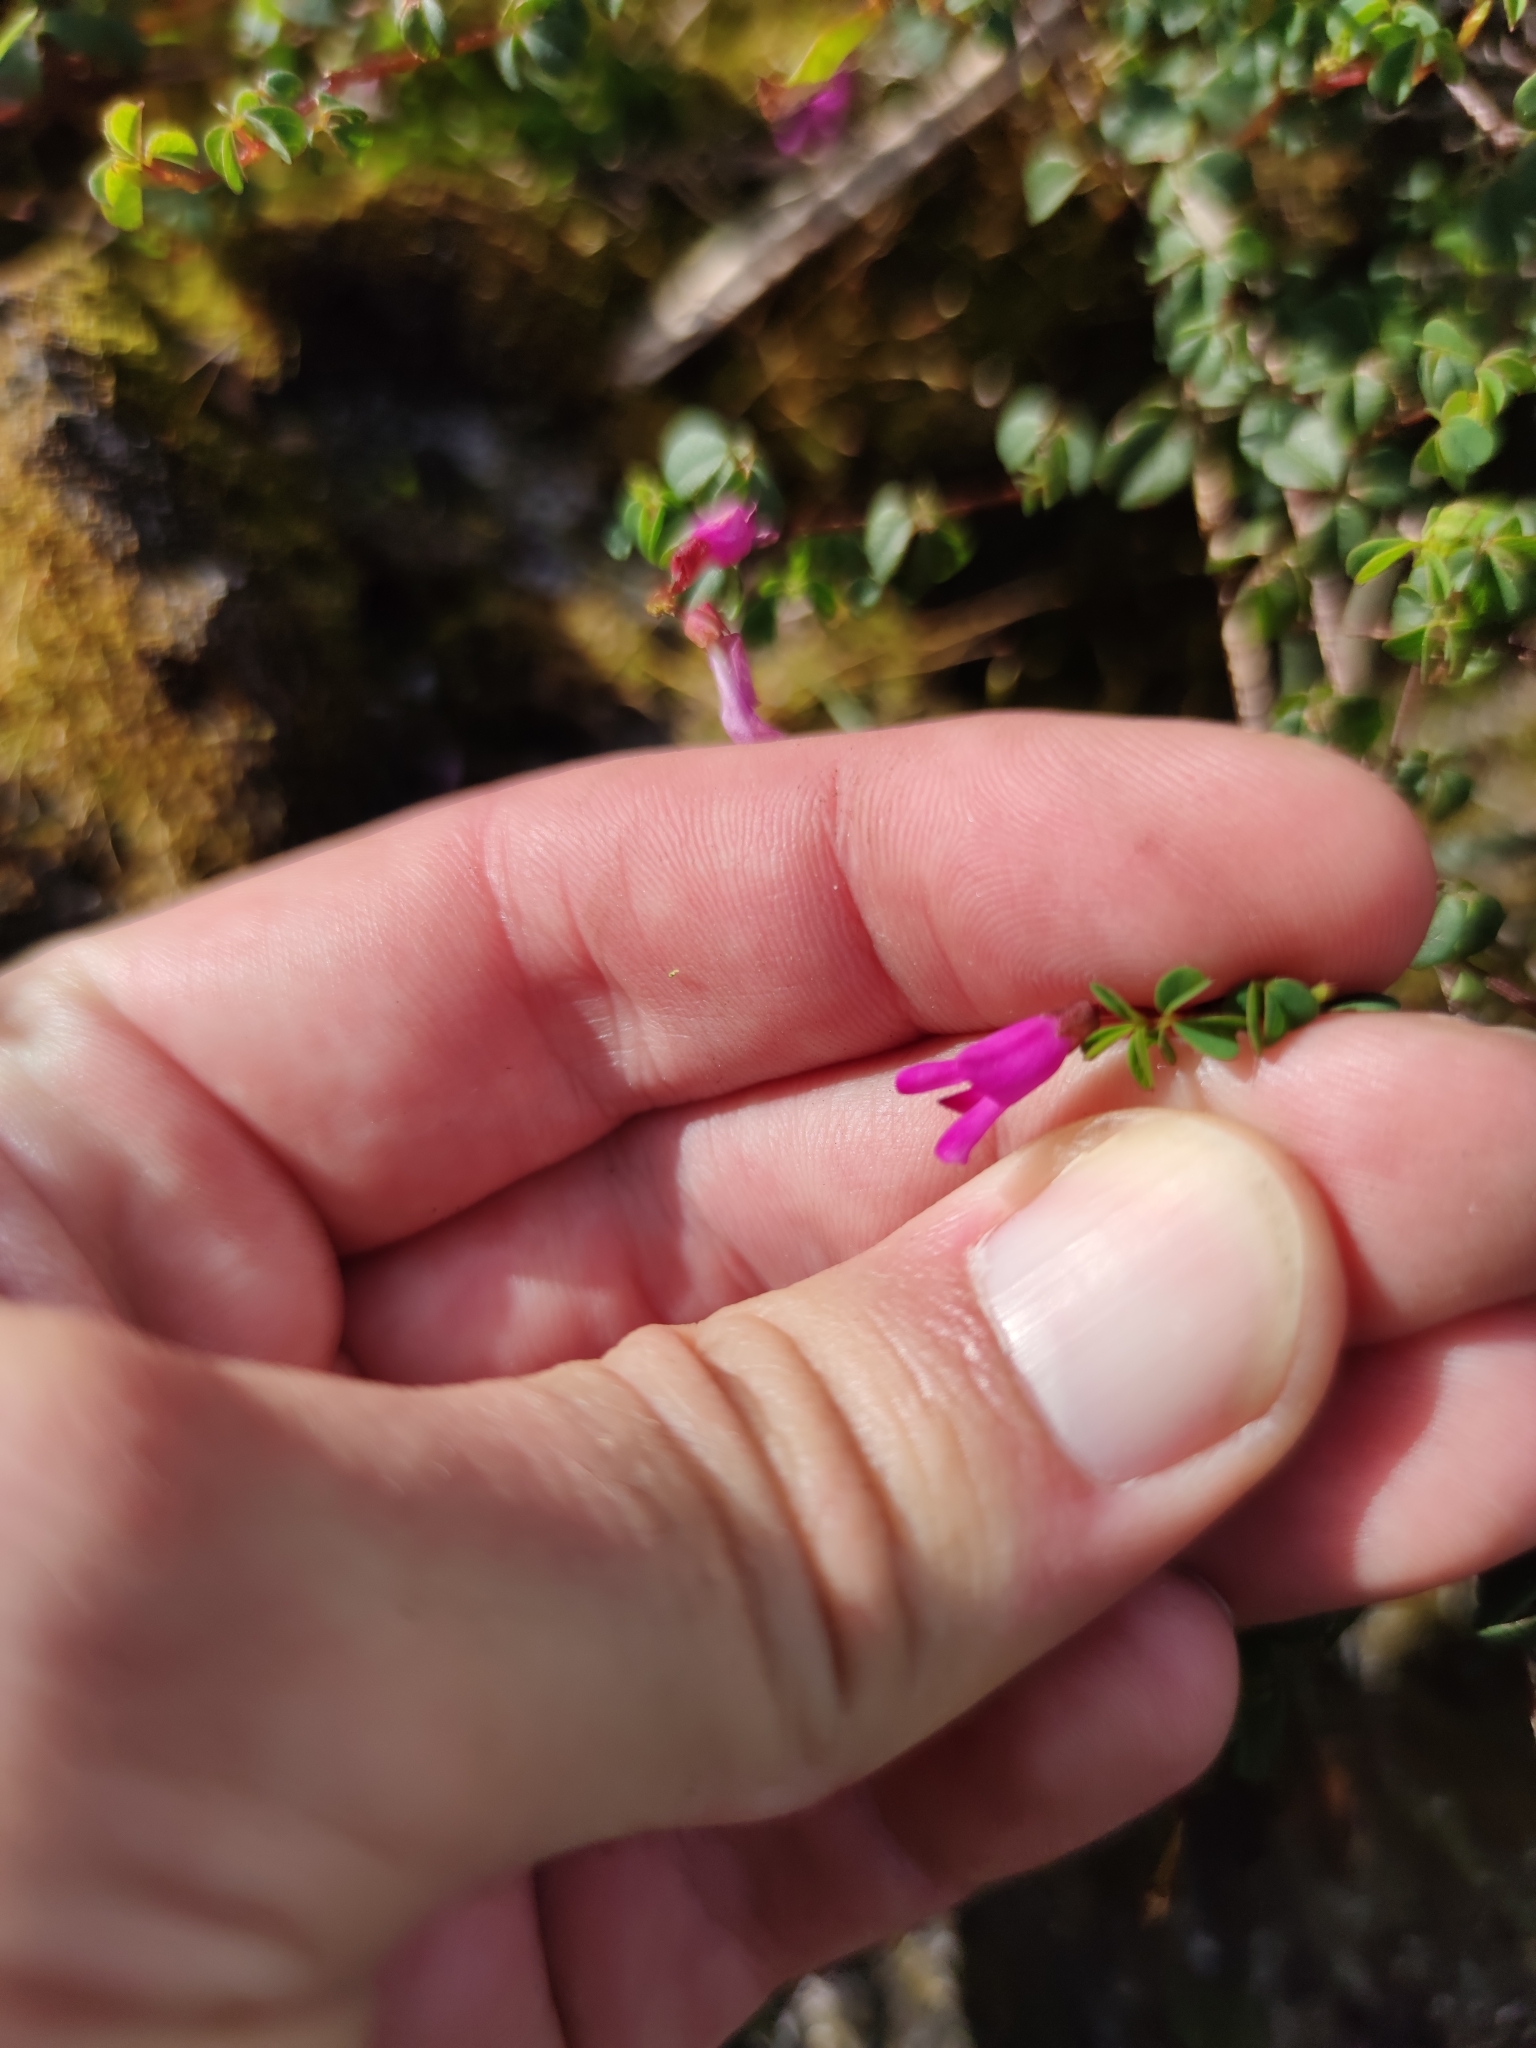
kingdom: Plantae
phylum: Tracheophyta
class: Magnoliopsida
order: Fabales
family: Fabaceae
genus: Hypocalyptus
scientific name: Hypocalyptus oxalidifolius
